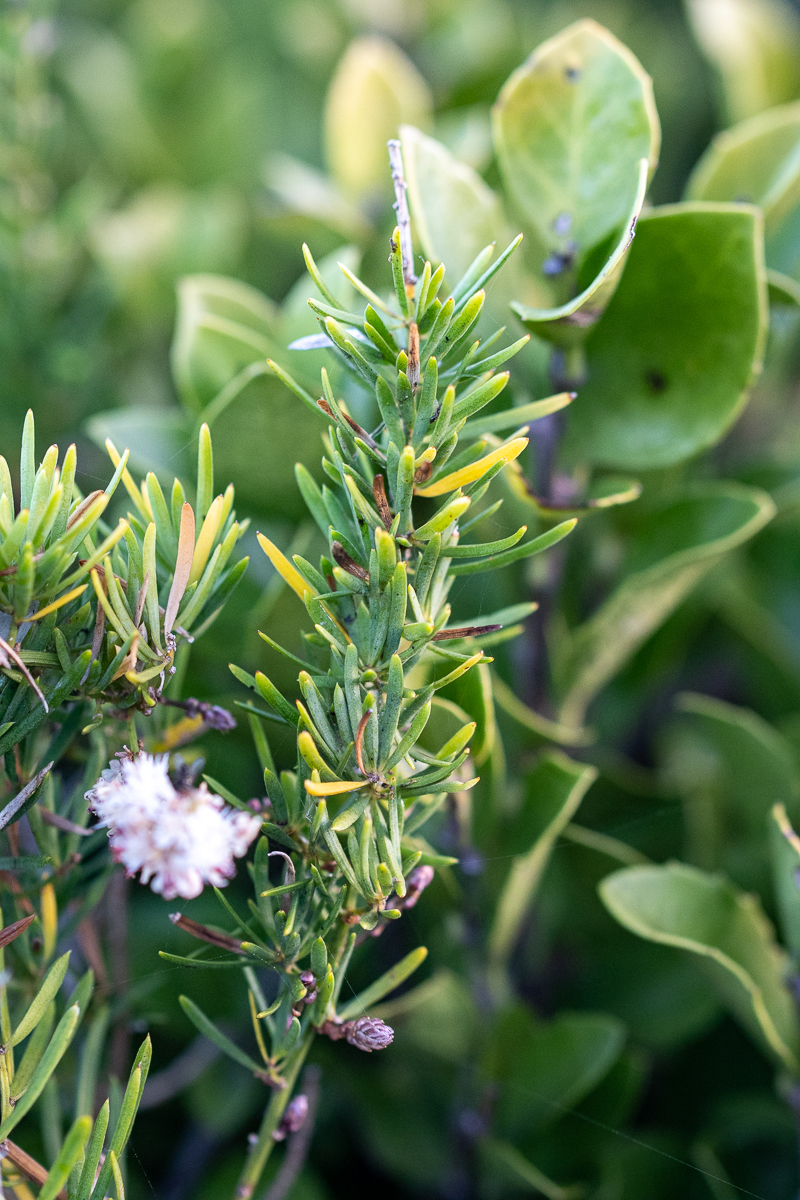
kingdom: Plantae
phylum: Tracheophyta
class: Liliopsida
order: Asparagales
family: Asparagaceae
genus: Asparagus
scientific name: Asparagus aethiopicus
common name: Sprenger's asparagus fern
